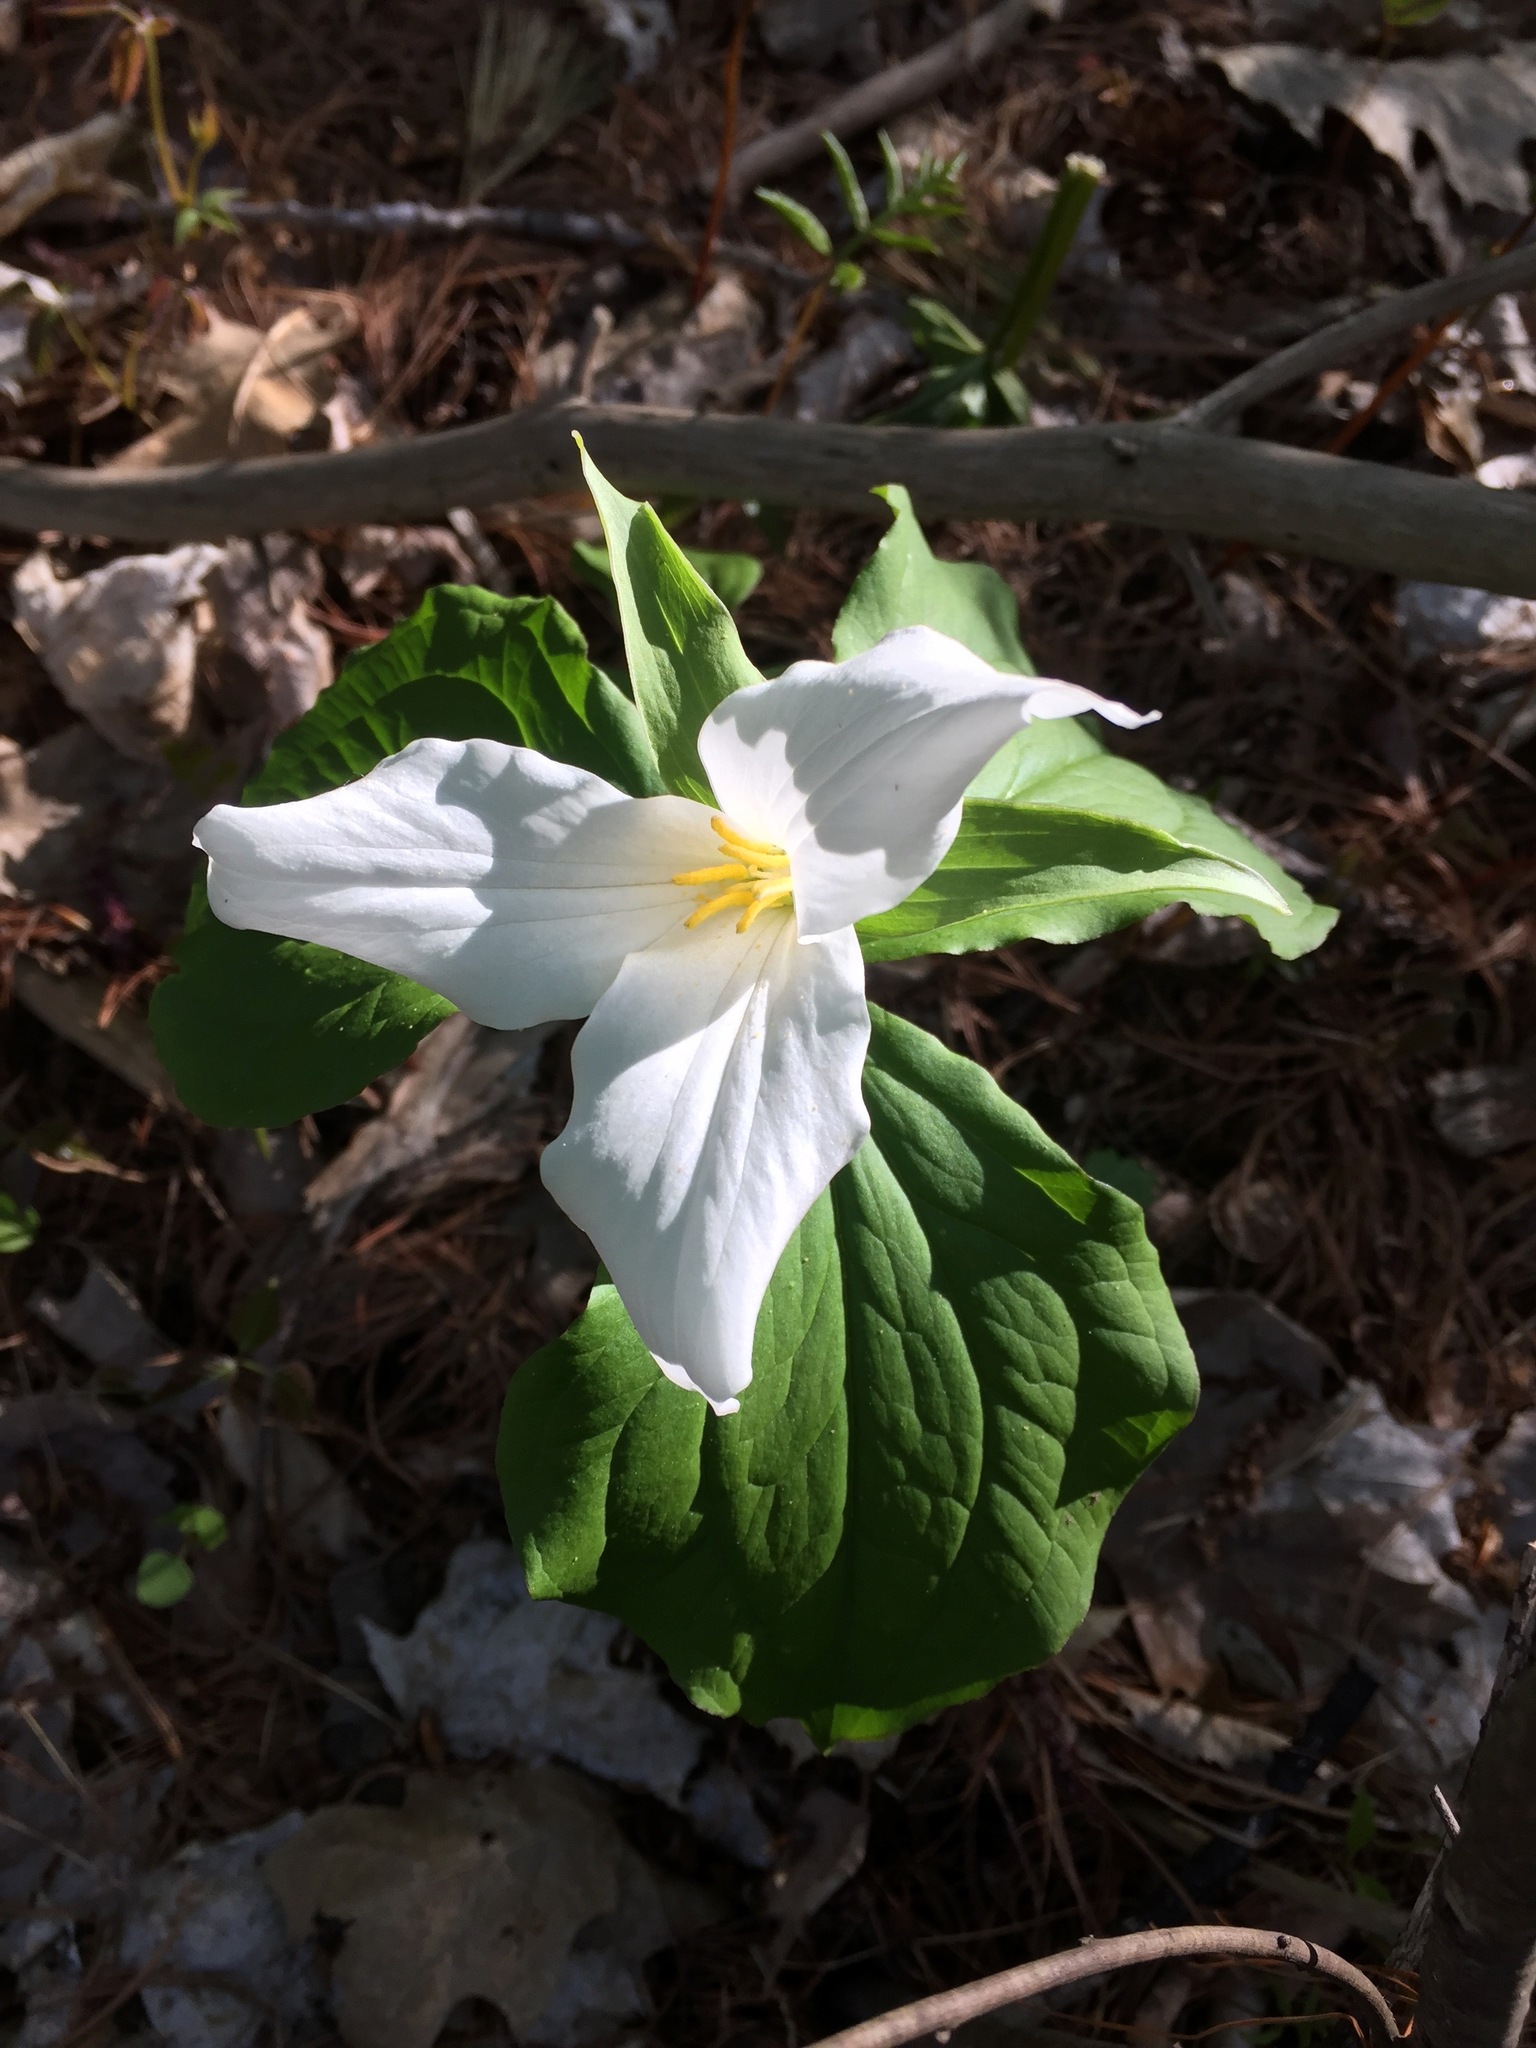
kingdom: Plantae
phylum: Tracheophyta
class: Liliopsida
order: Liliales
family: Melanthiaceae
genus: Trillium
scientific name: Trillium grandiflorum
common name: Great white trillium
